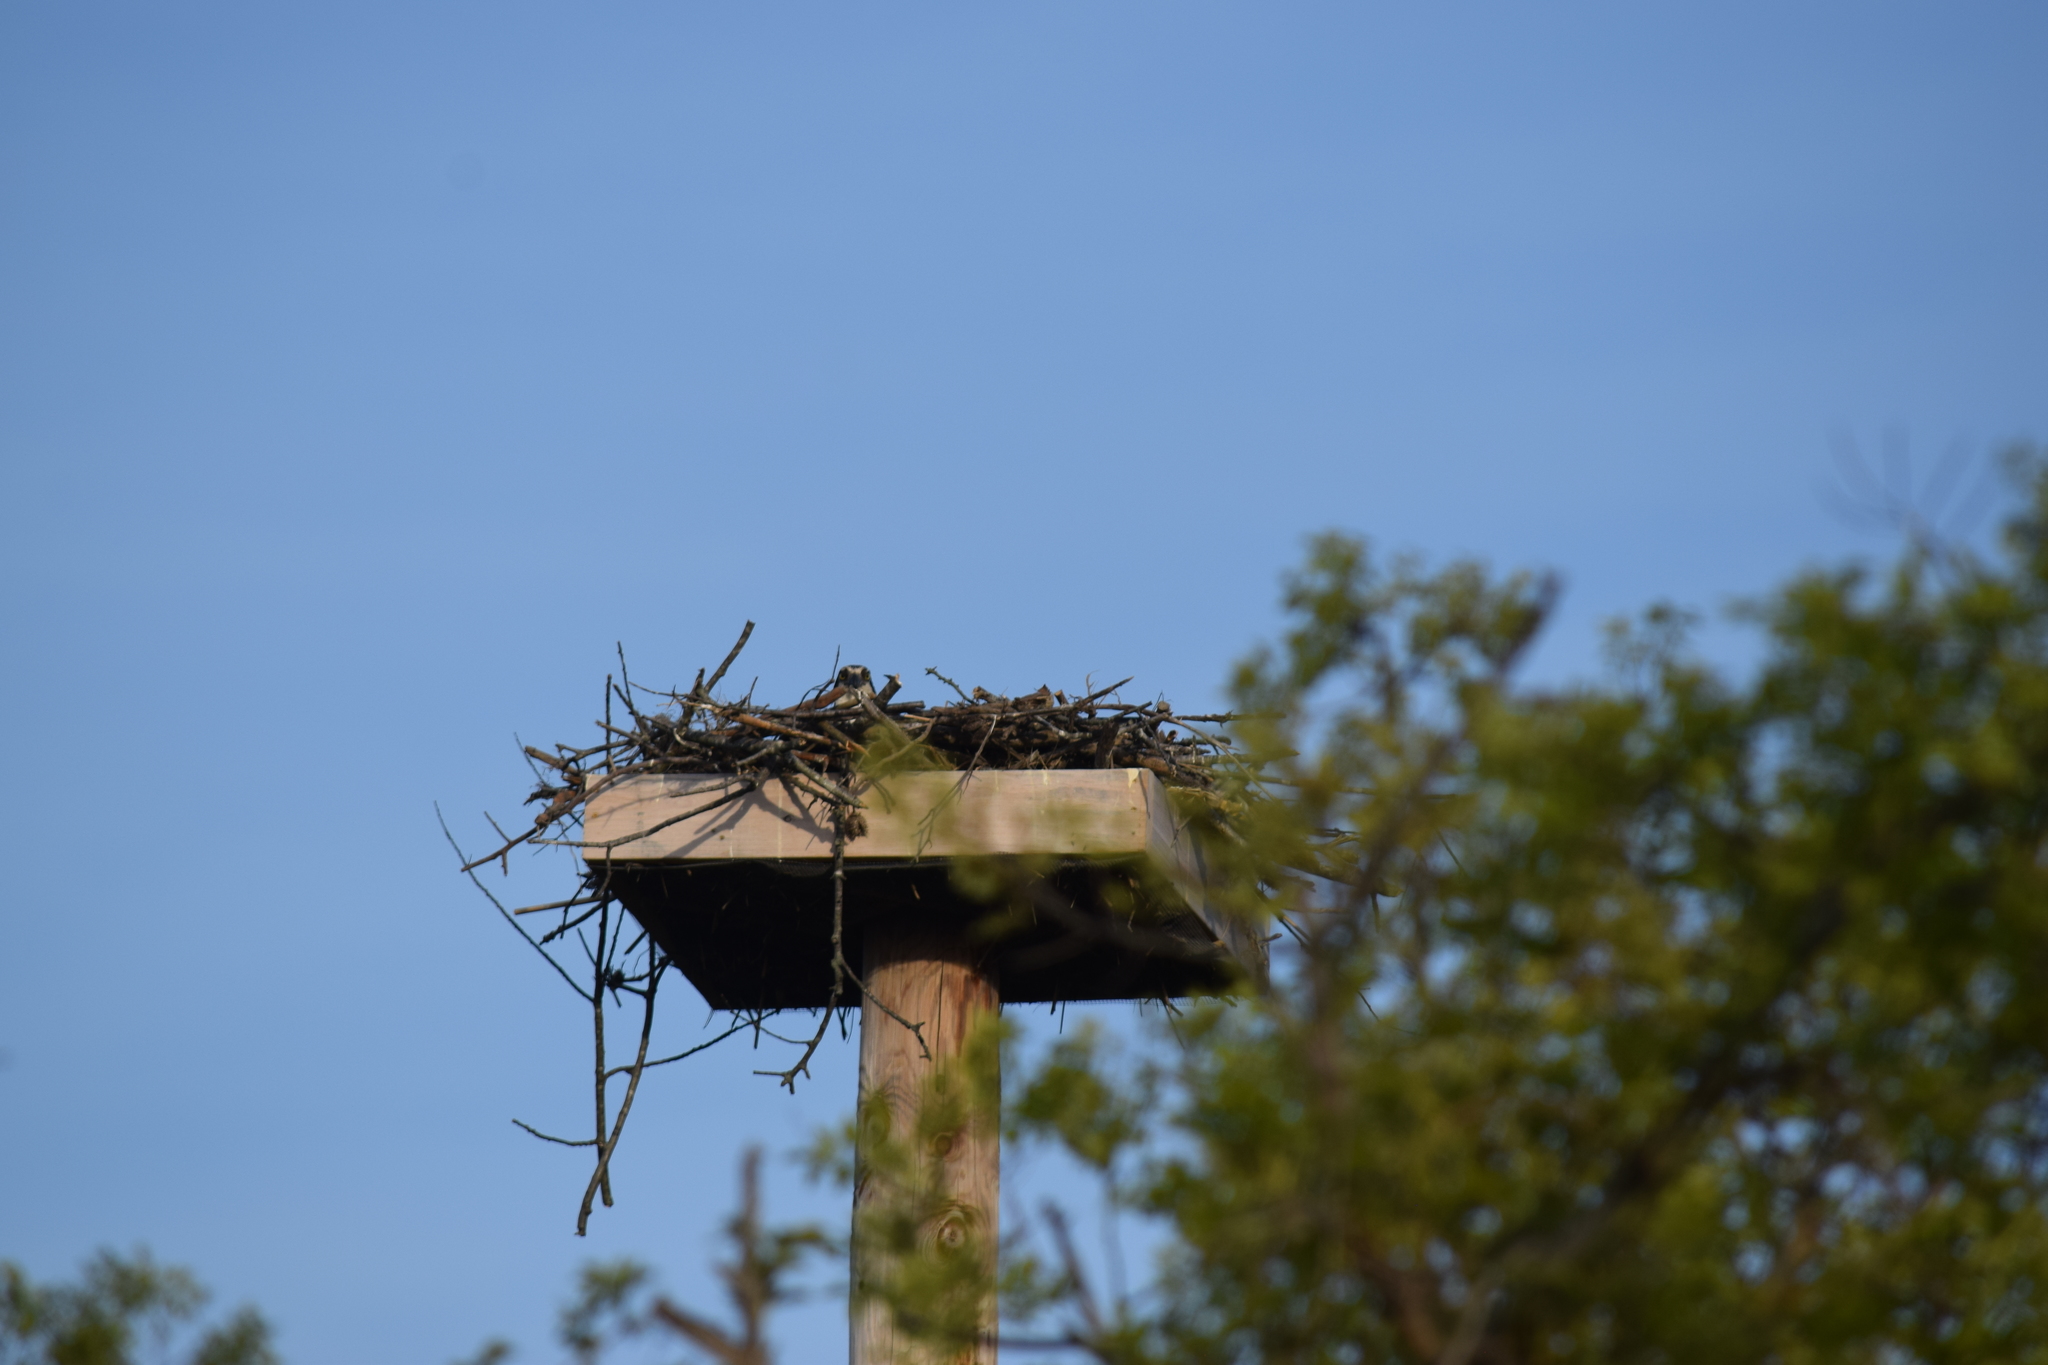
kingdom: Animalia
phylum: Chordata
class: Aves
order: Accipitriformes
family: Pandionidae
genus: Pandion
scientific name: Pandion haliaetus
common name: Osprey
